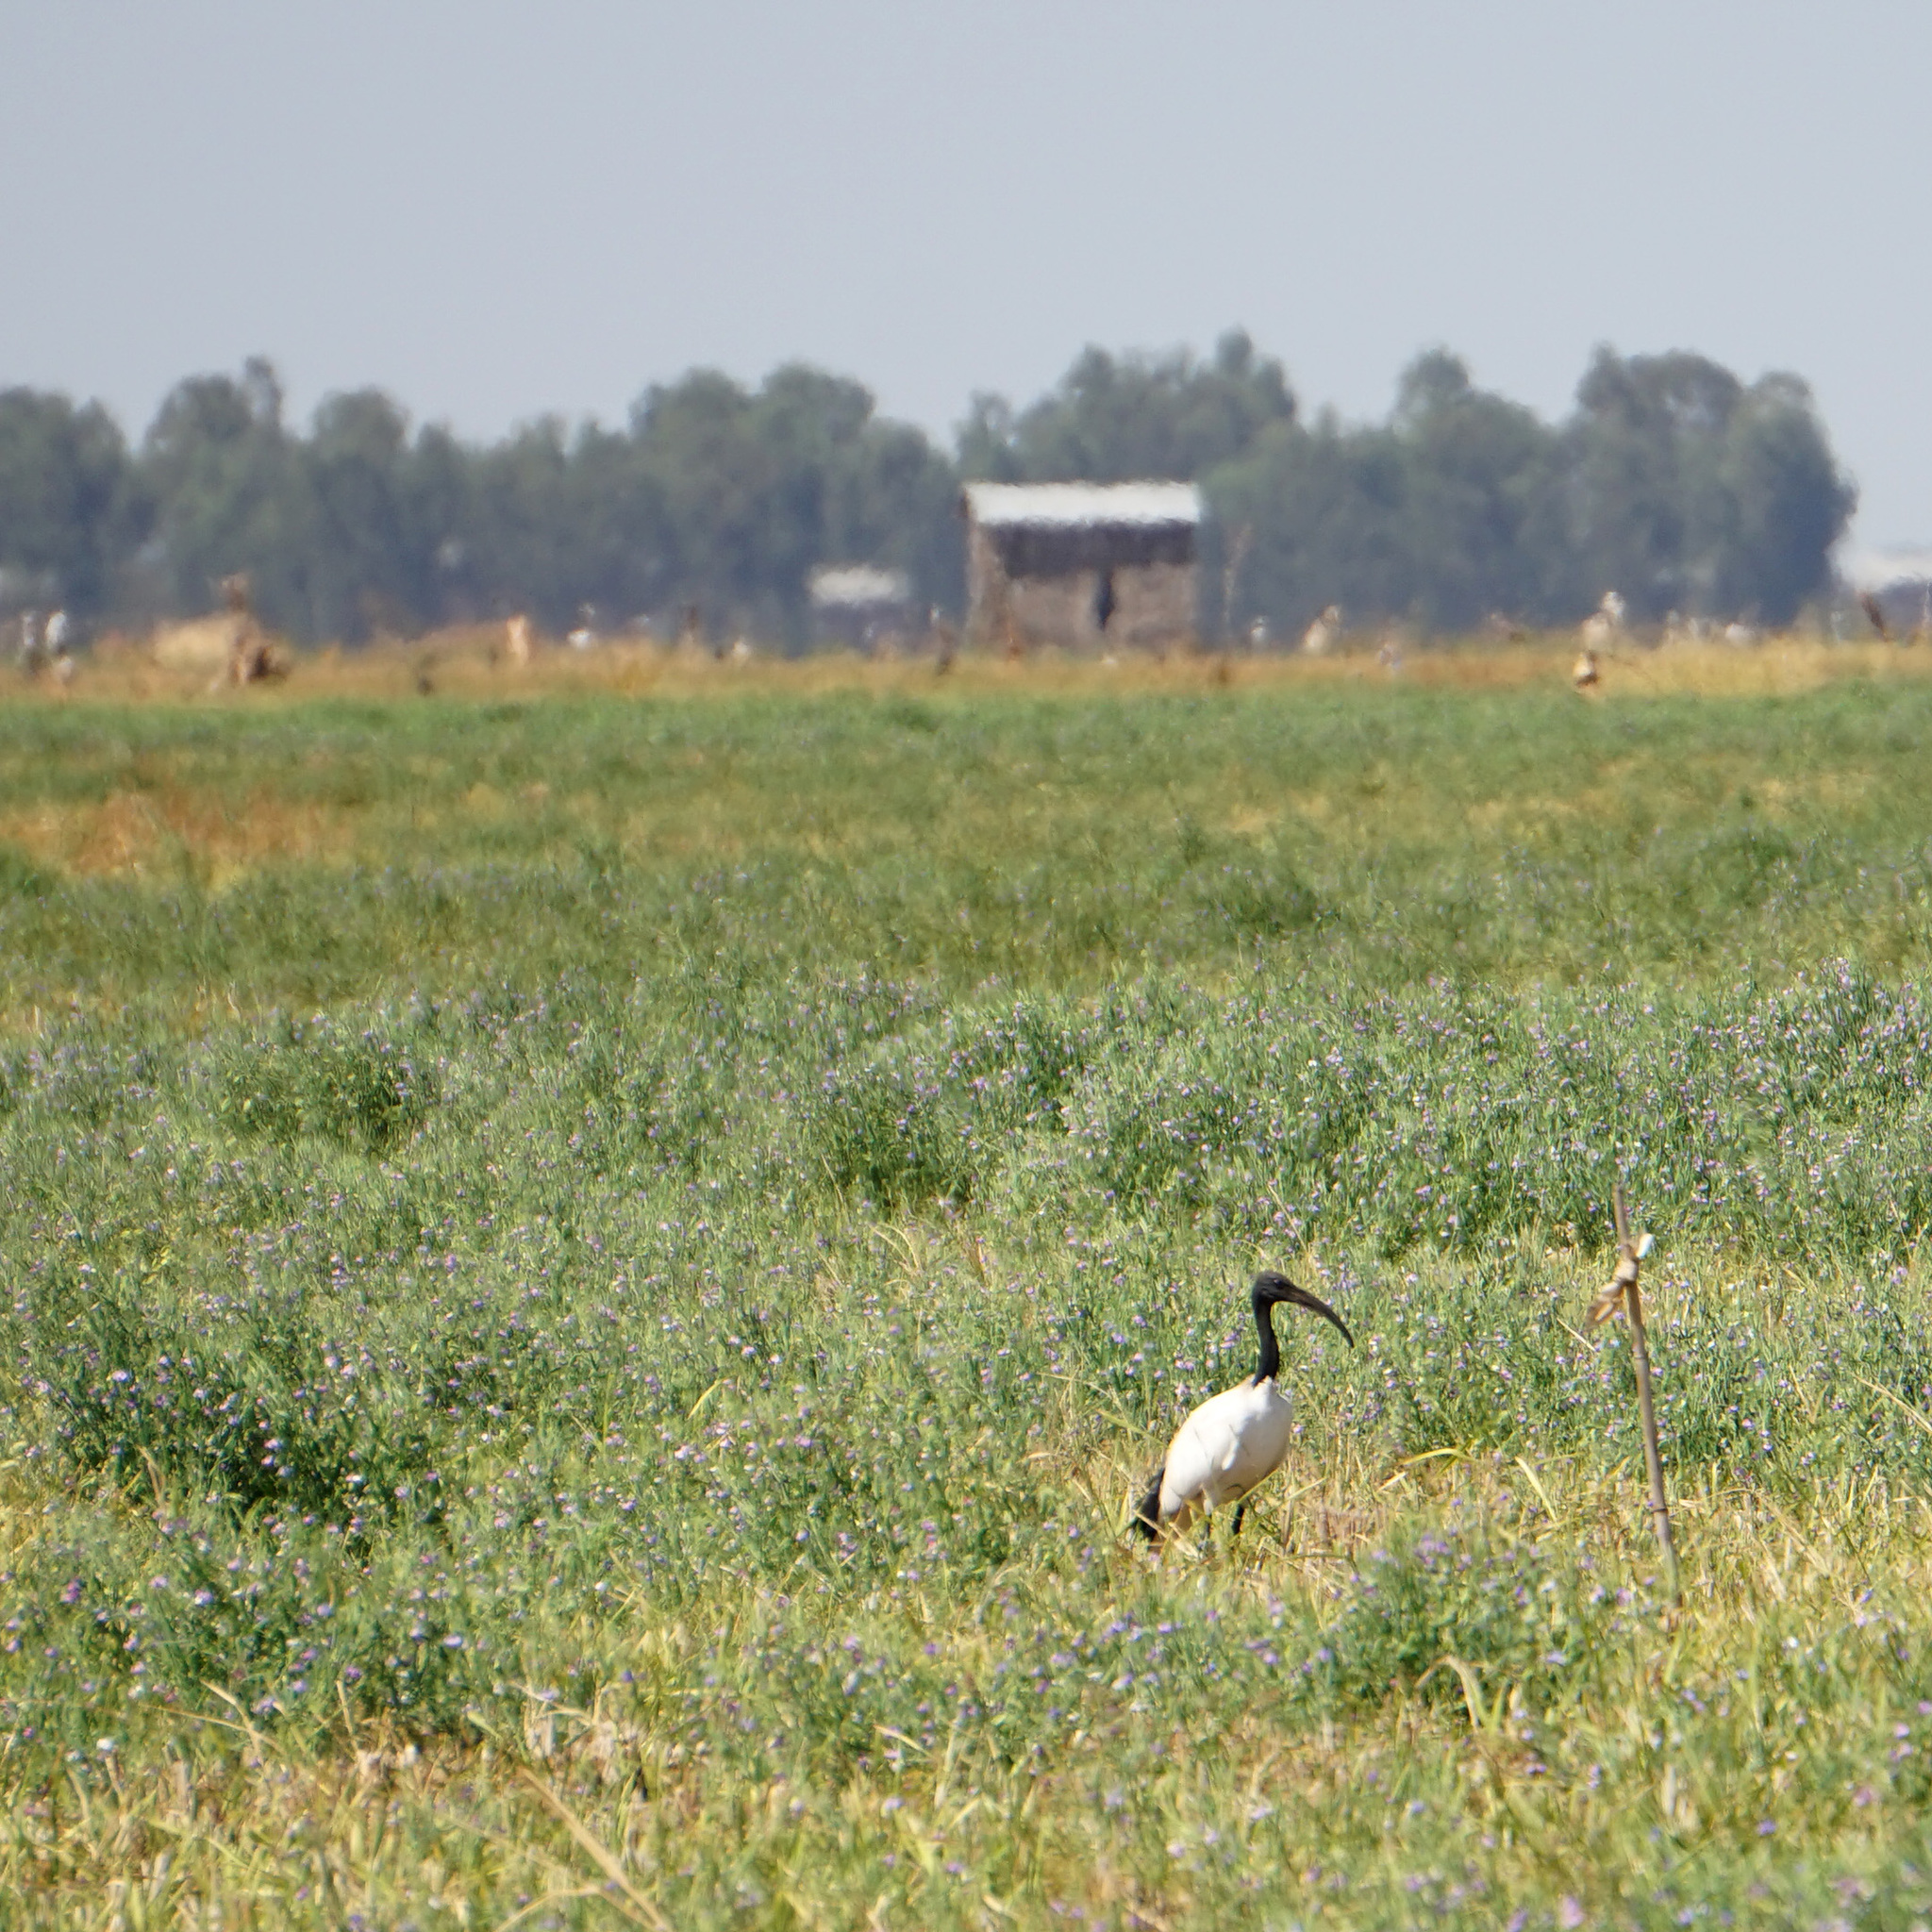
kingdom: Animalia
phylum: Chordata
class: Aves
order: Pelecaniformes
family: Threskiornithidae
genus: Threskiornis
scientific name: Threskiornis aethiopicus
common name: Sacred ibis
